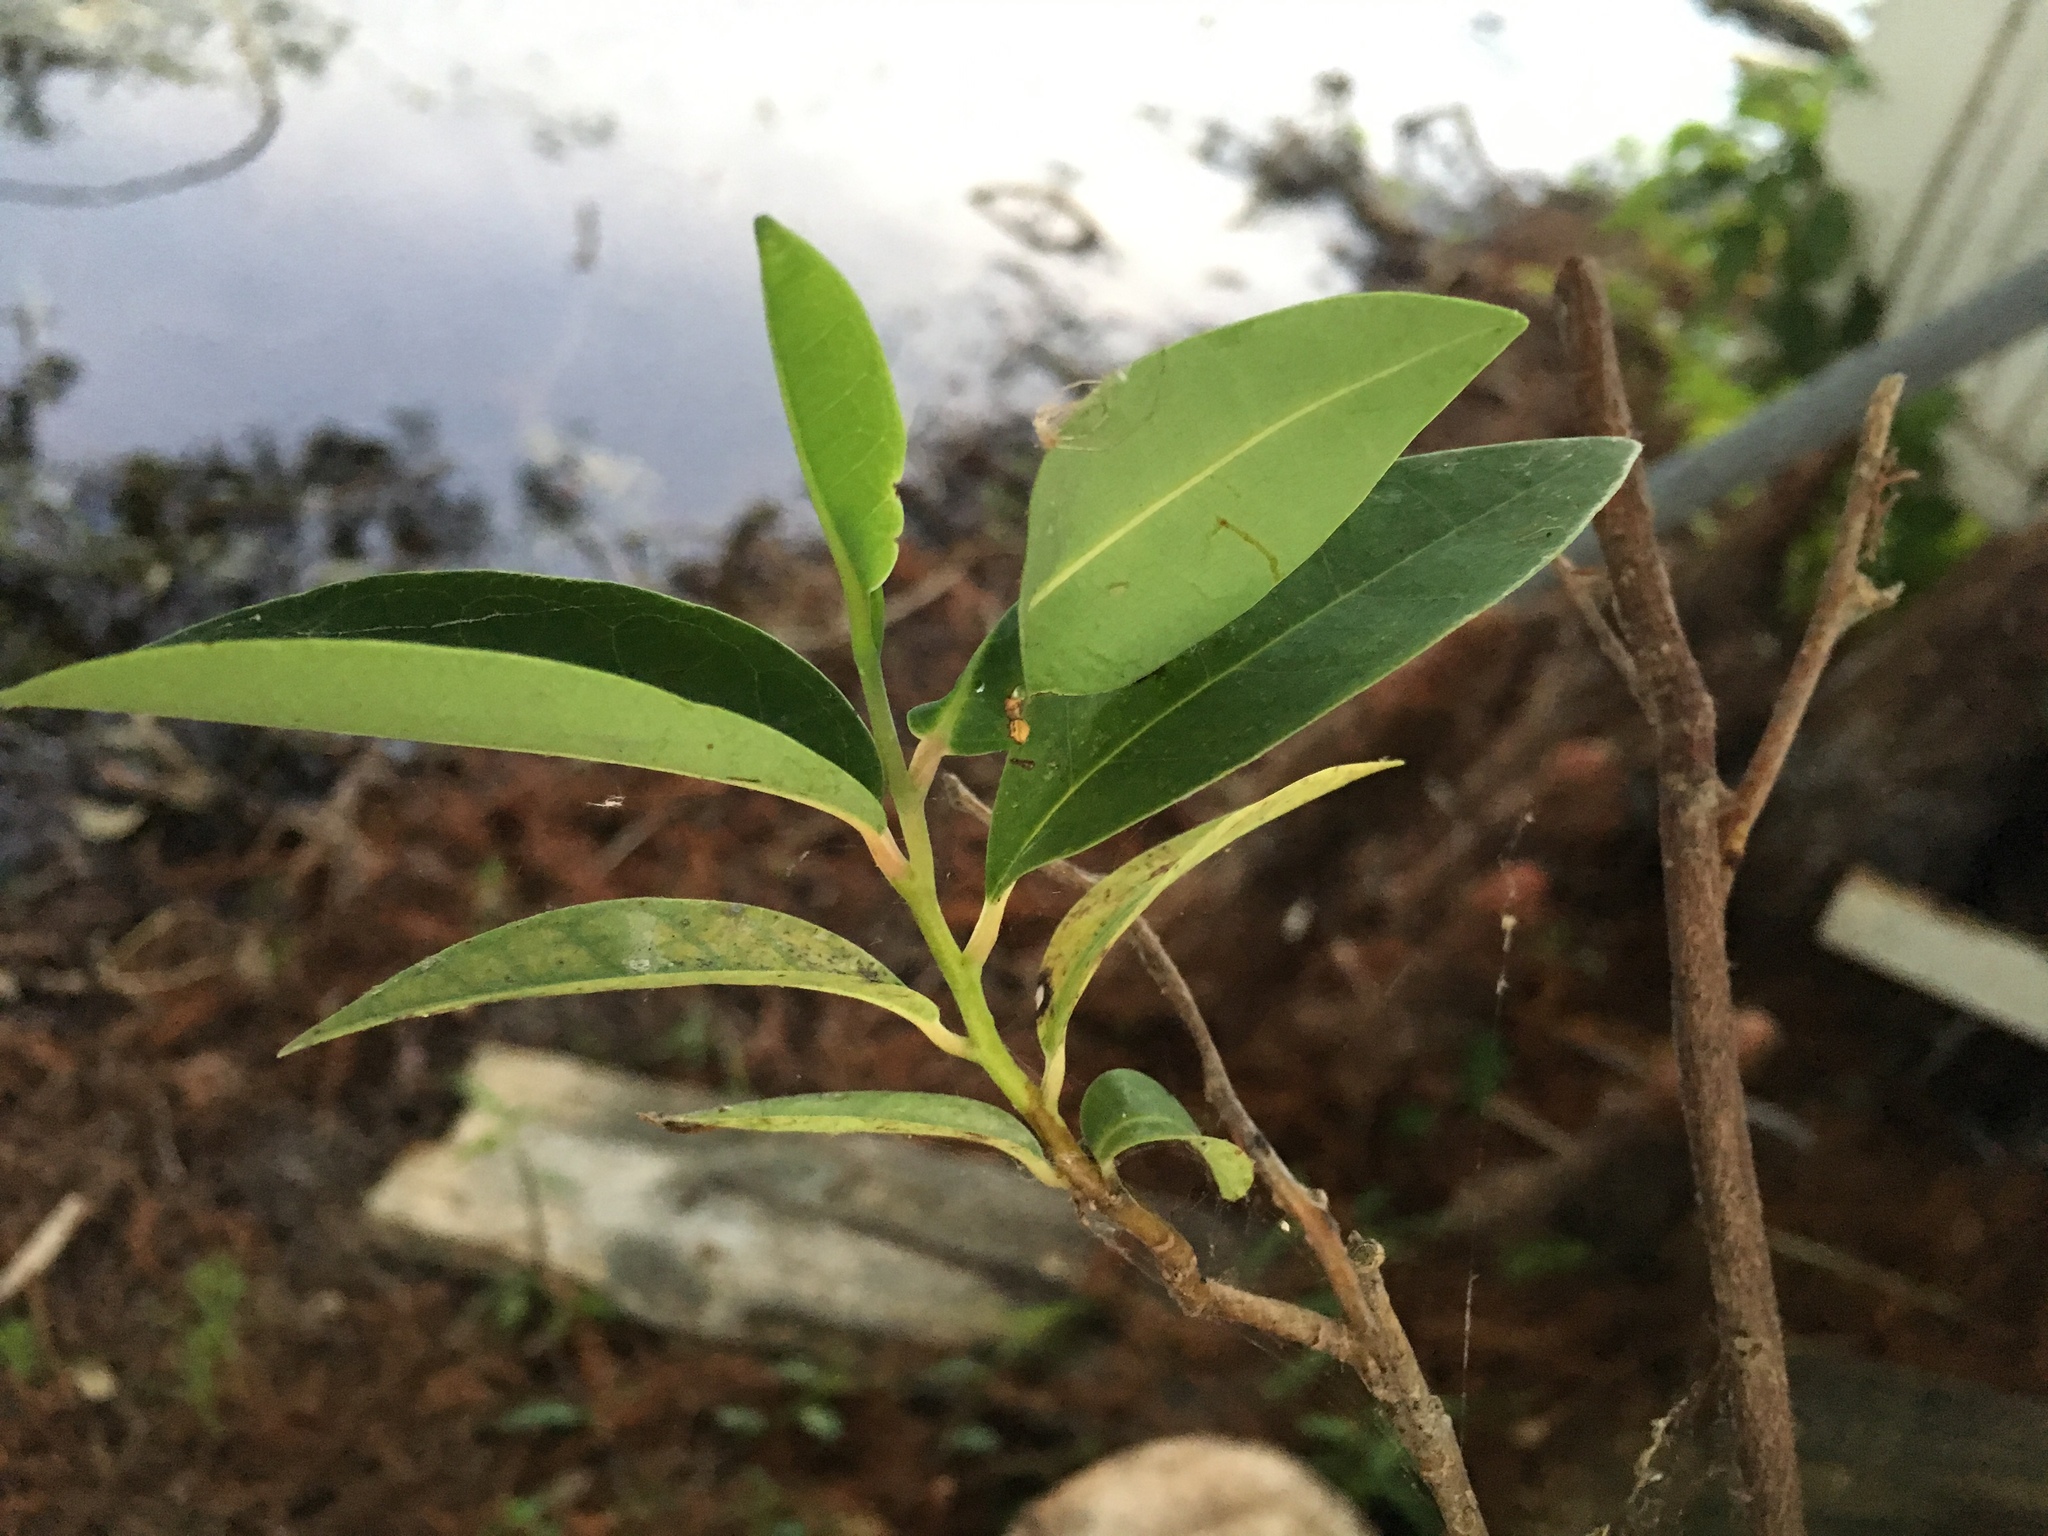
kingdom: Plantae
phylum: Tracheophyta
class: Magnoliopsida
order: Magnoliales
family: Annonaceae
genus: Annona
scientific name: Annona glabra
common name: Monkey apple
